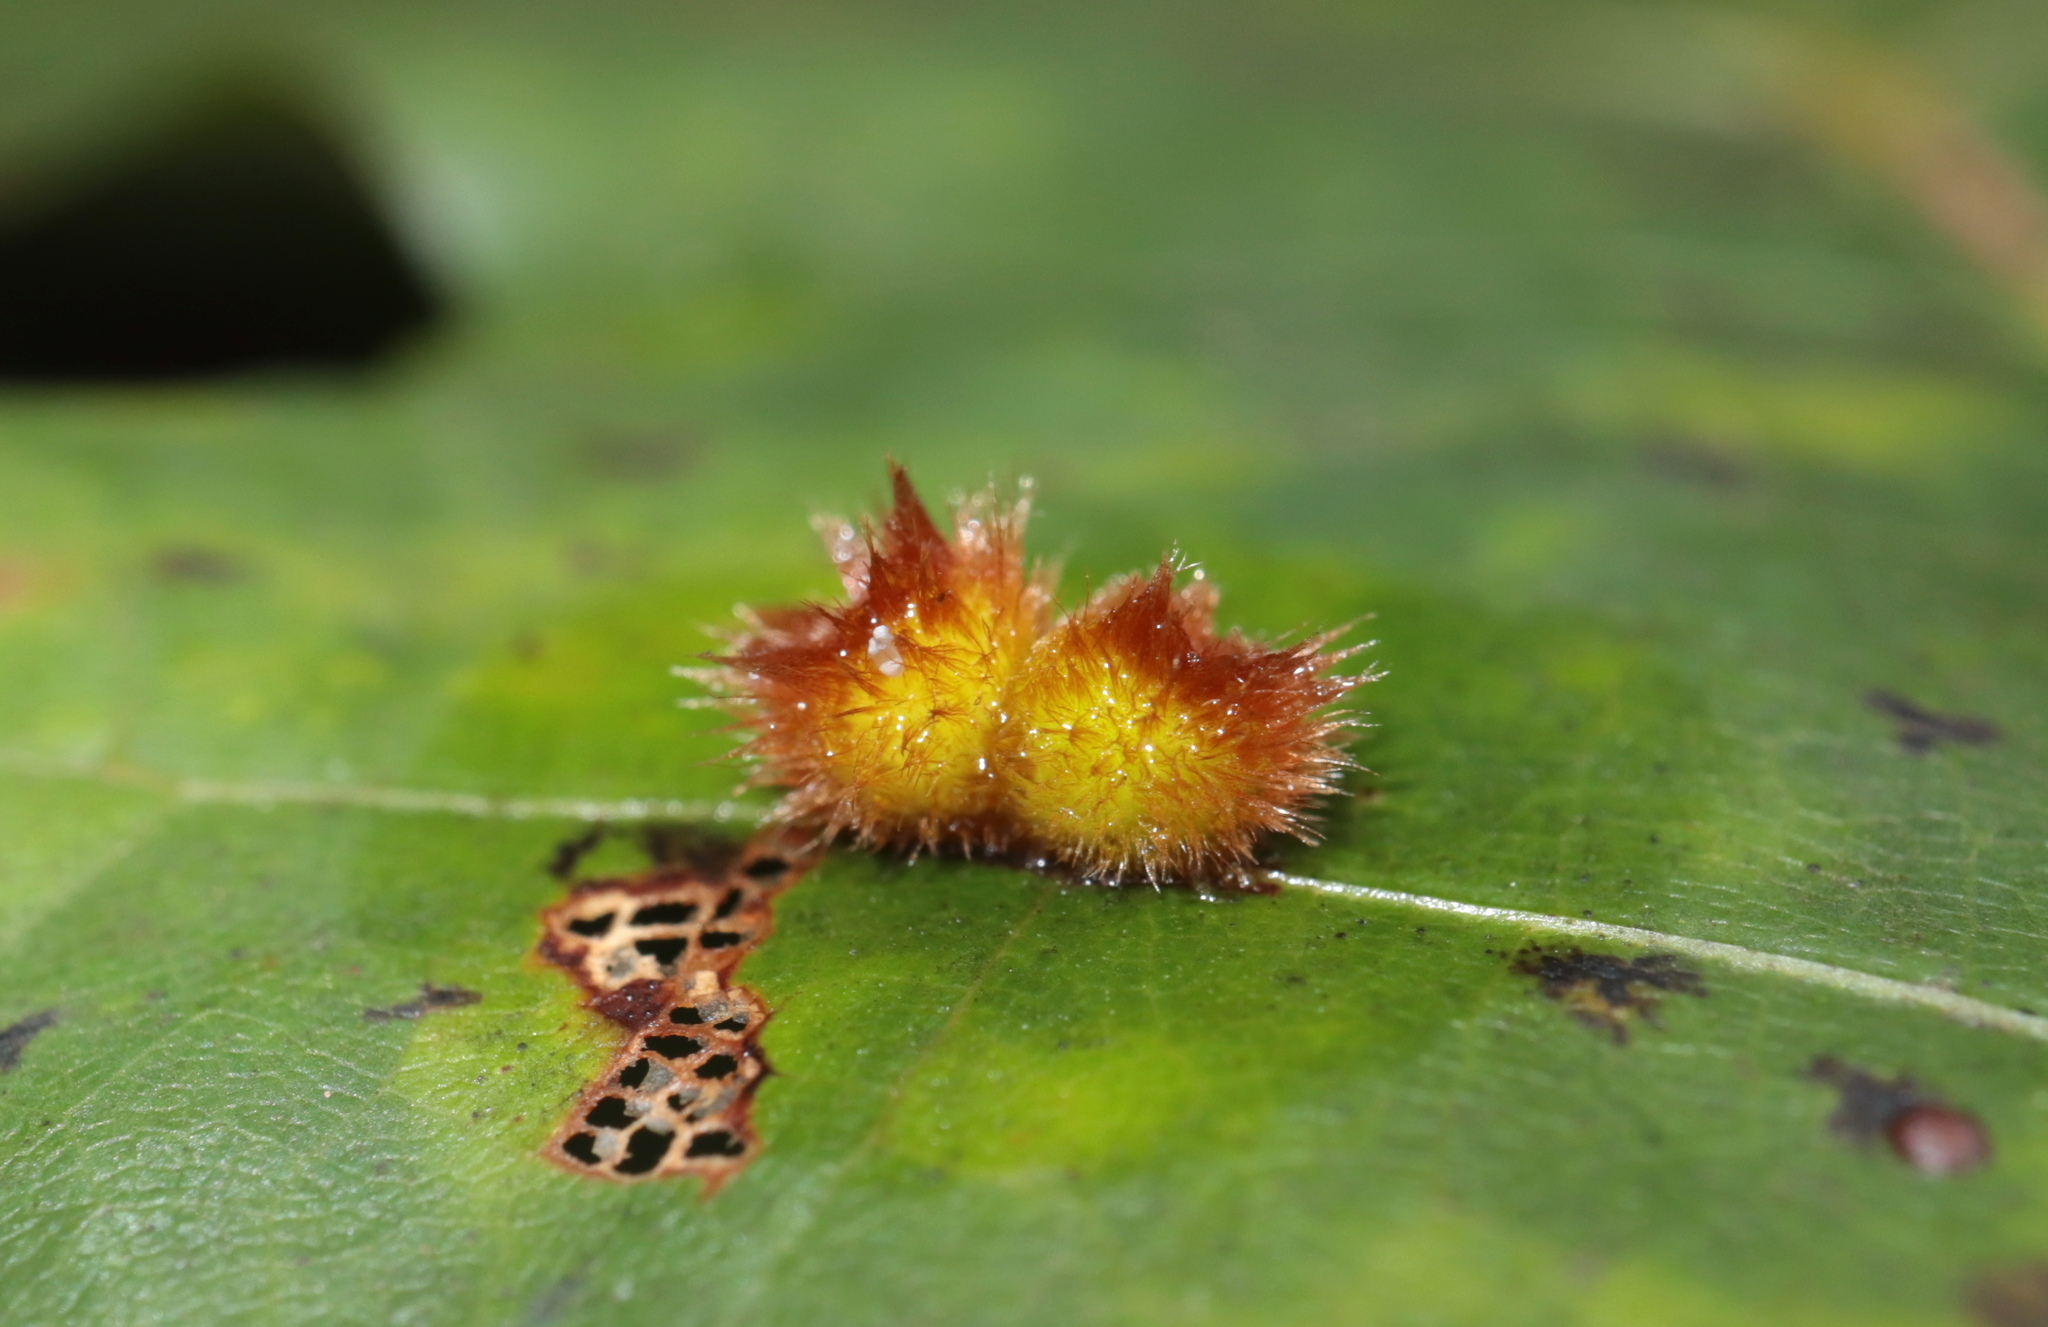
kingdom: Animalia
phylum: Arthropoda
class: Insecta
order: Hymenoptera
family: Cynipidae
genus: Callirhytis
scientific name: Callirhytis
